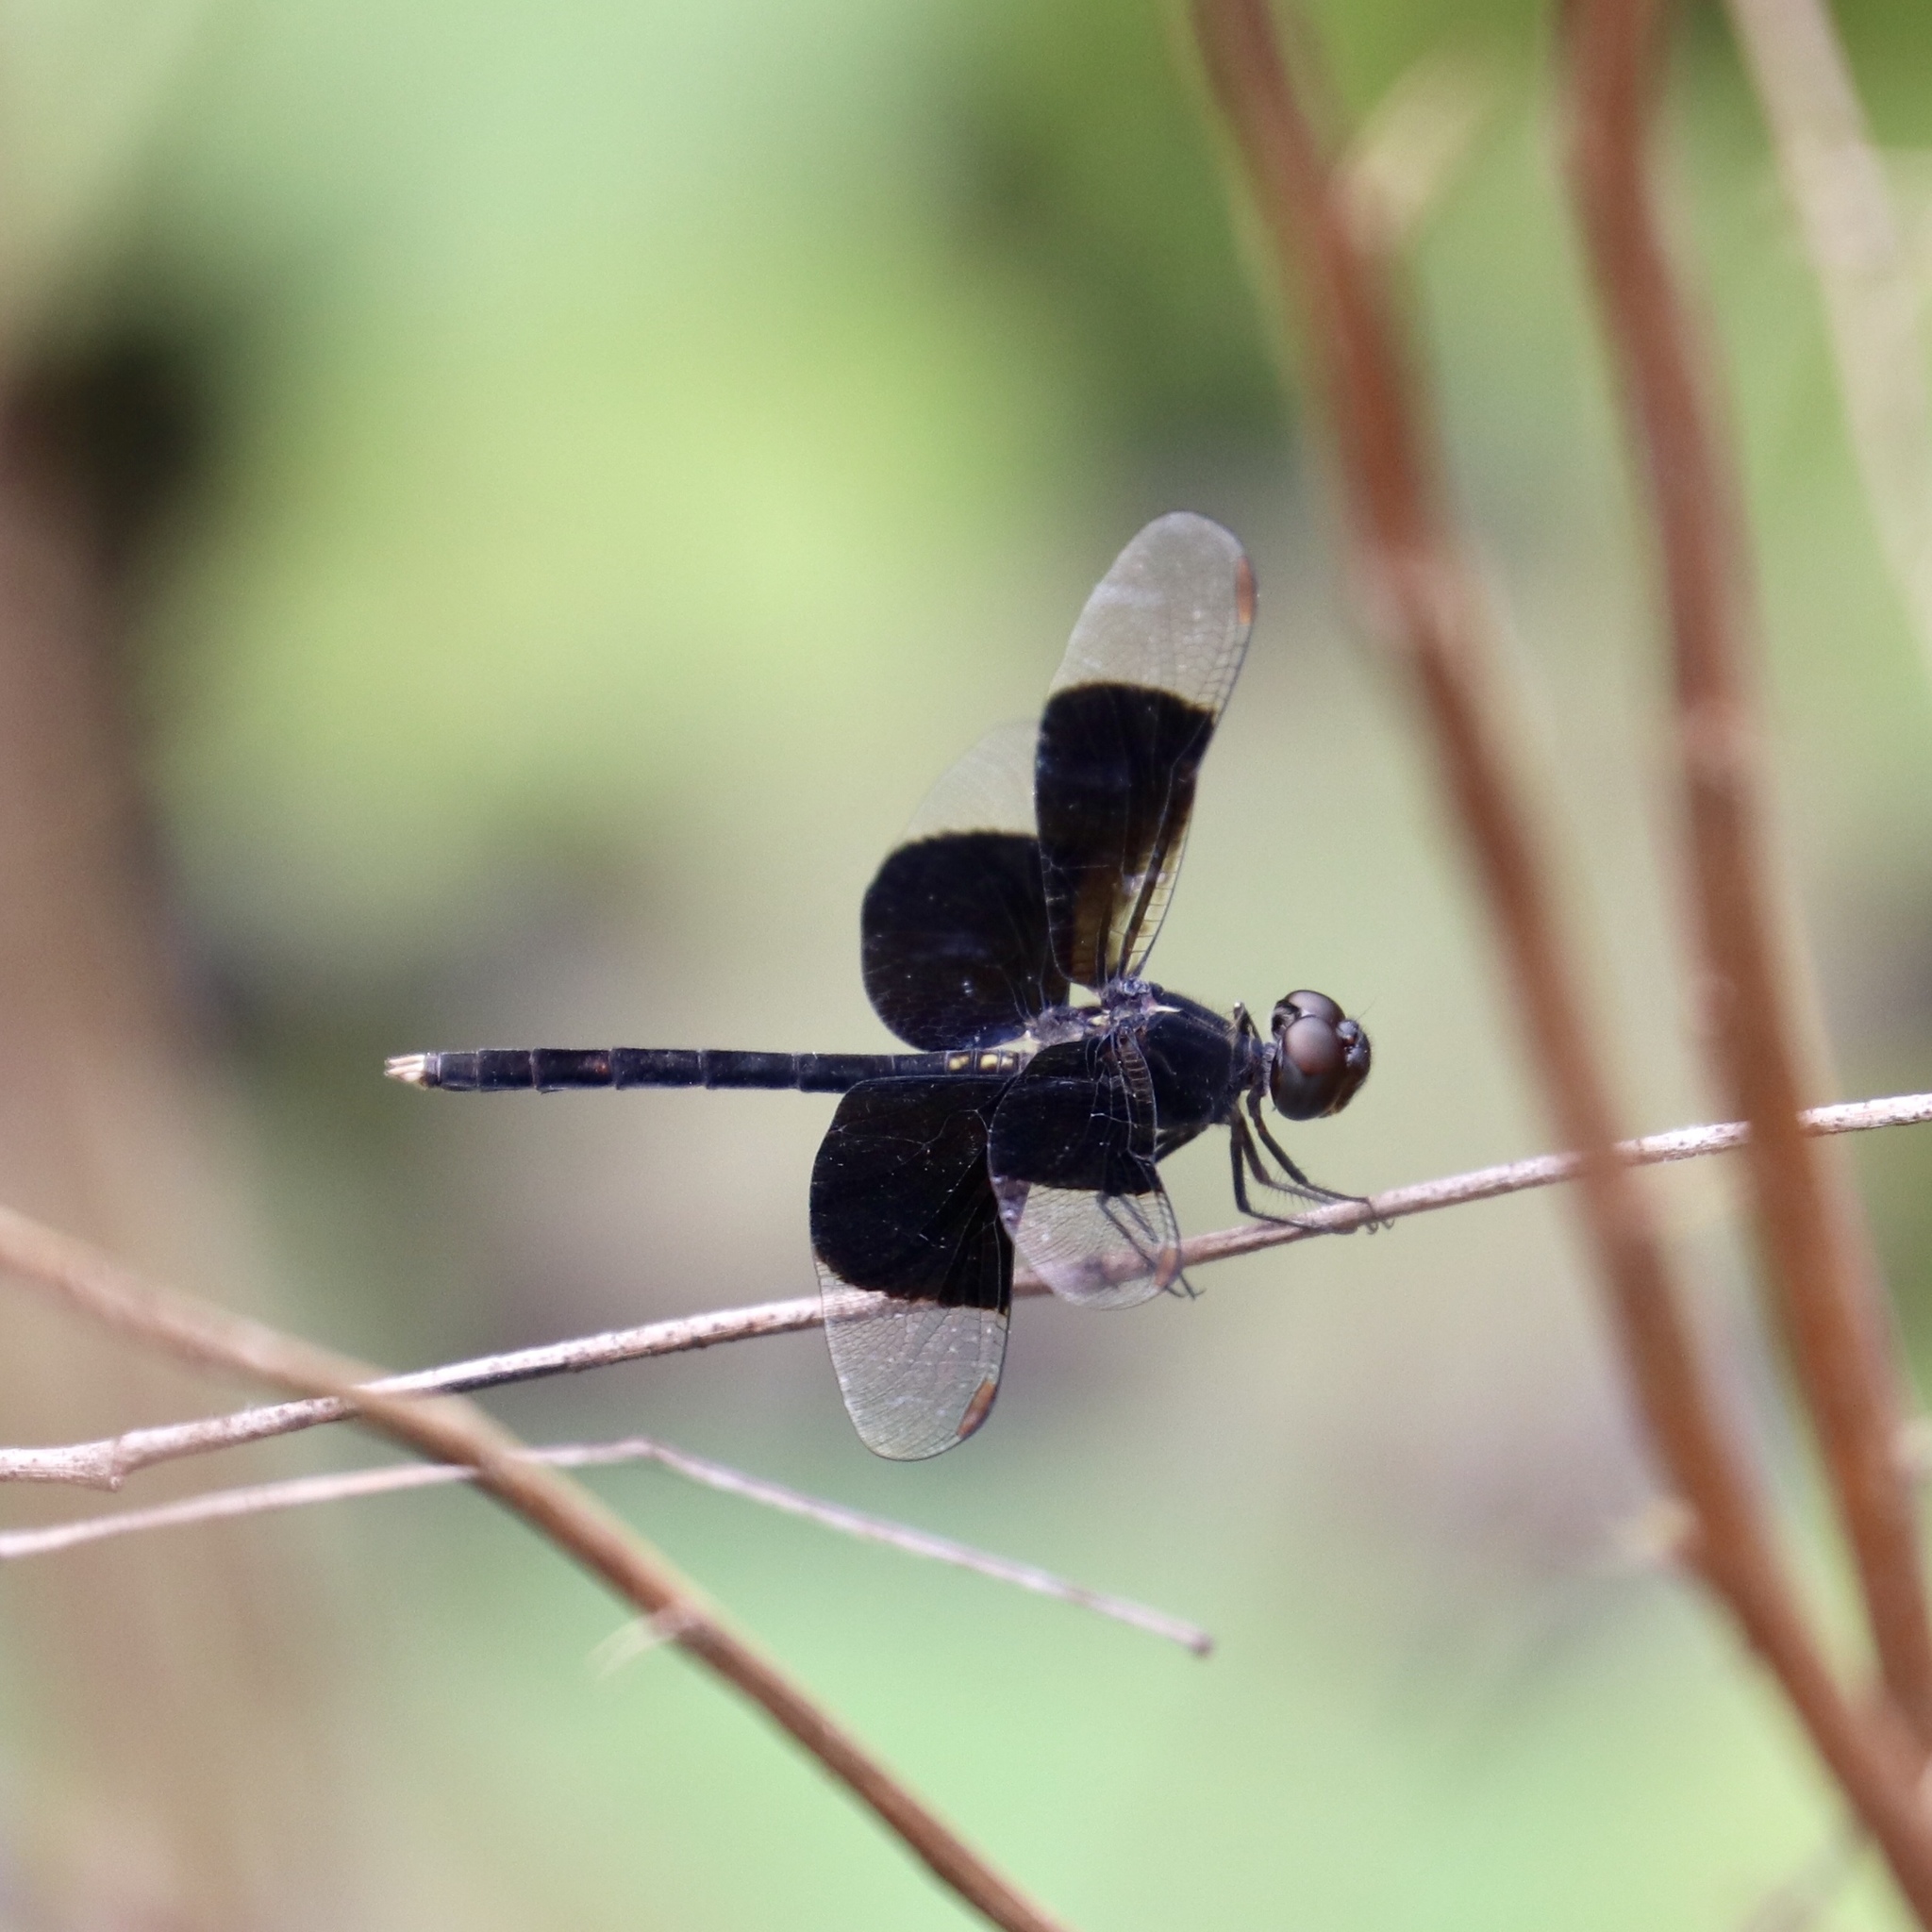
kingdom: Animalia
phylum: Arthropoda
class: Insecta
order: Odonata
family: Libellulidae
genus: Erythrodiplax
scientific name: Erythrodiplax funerea
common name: Black-winged dragonlet
